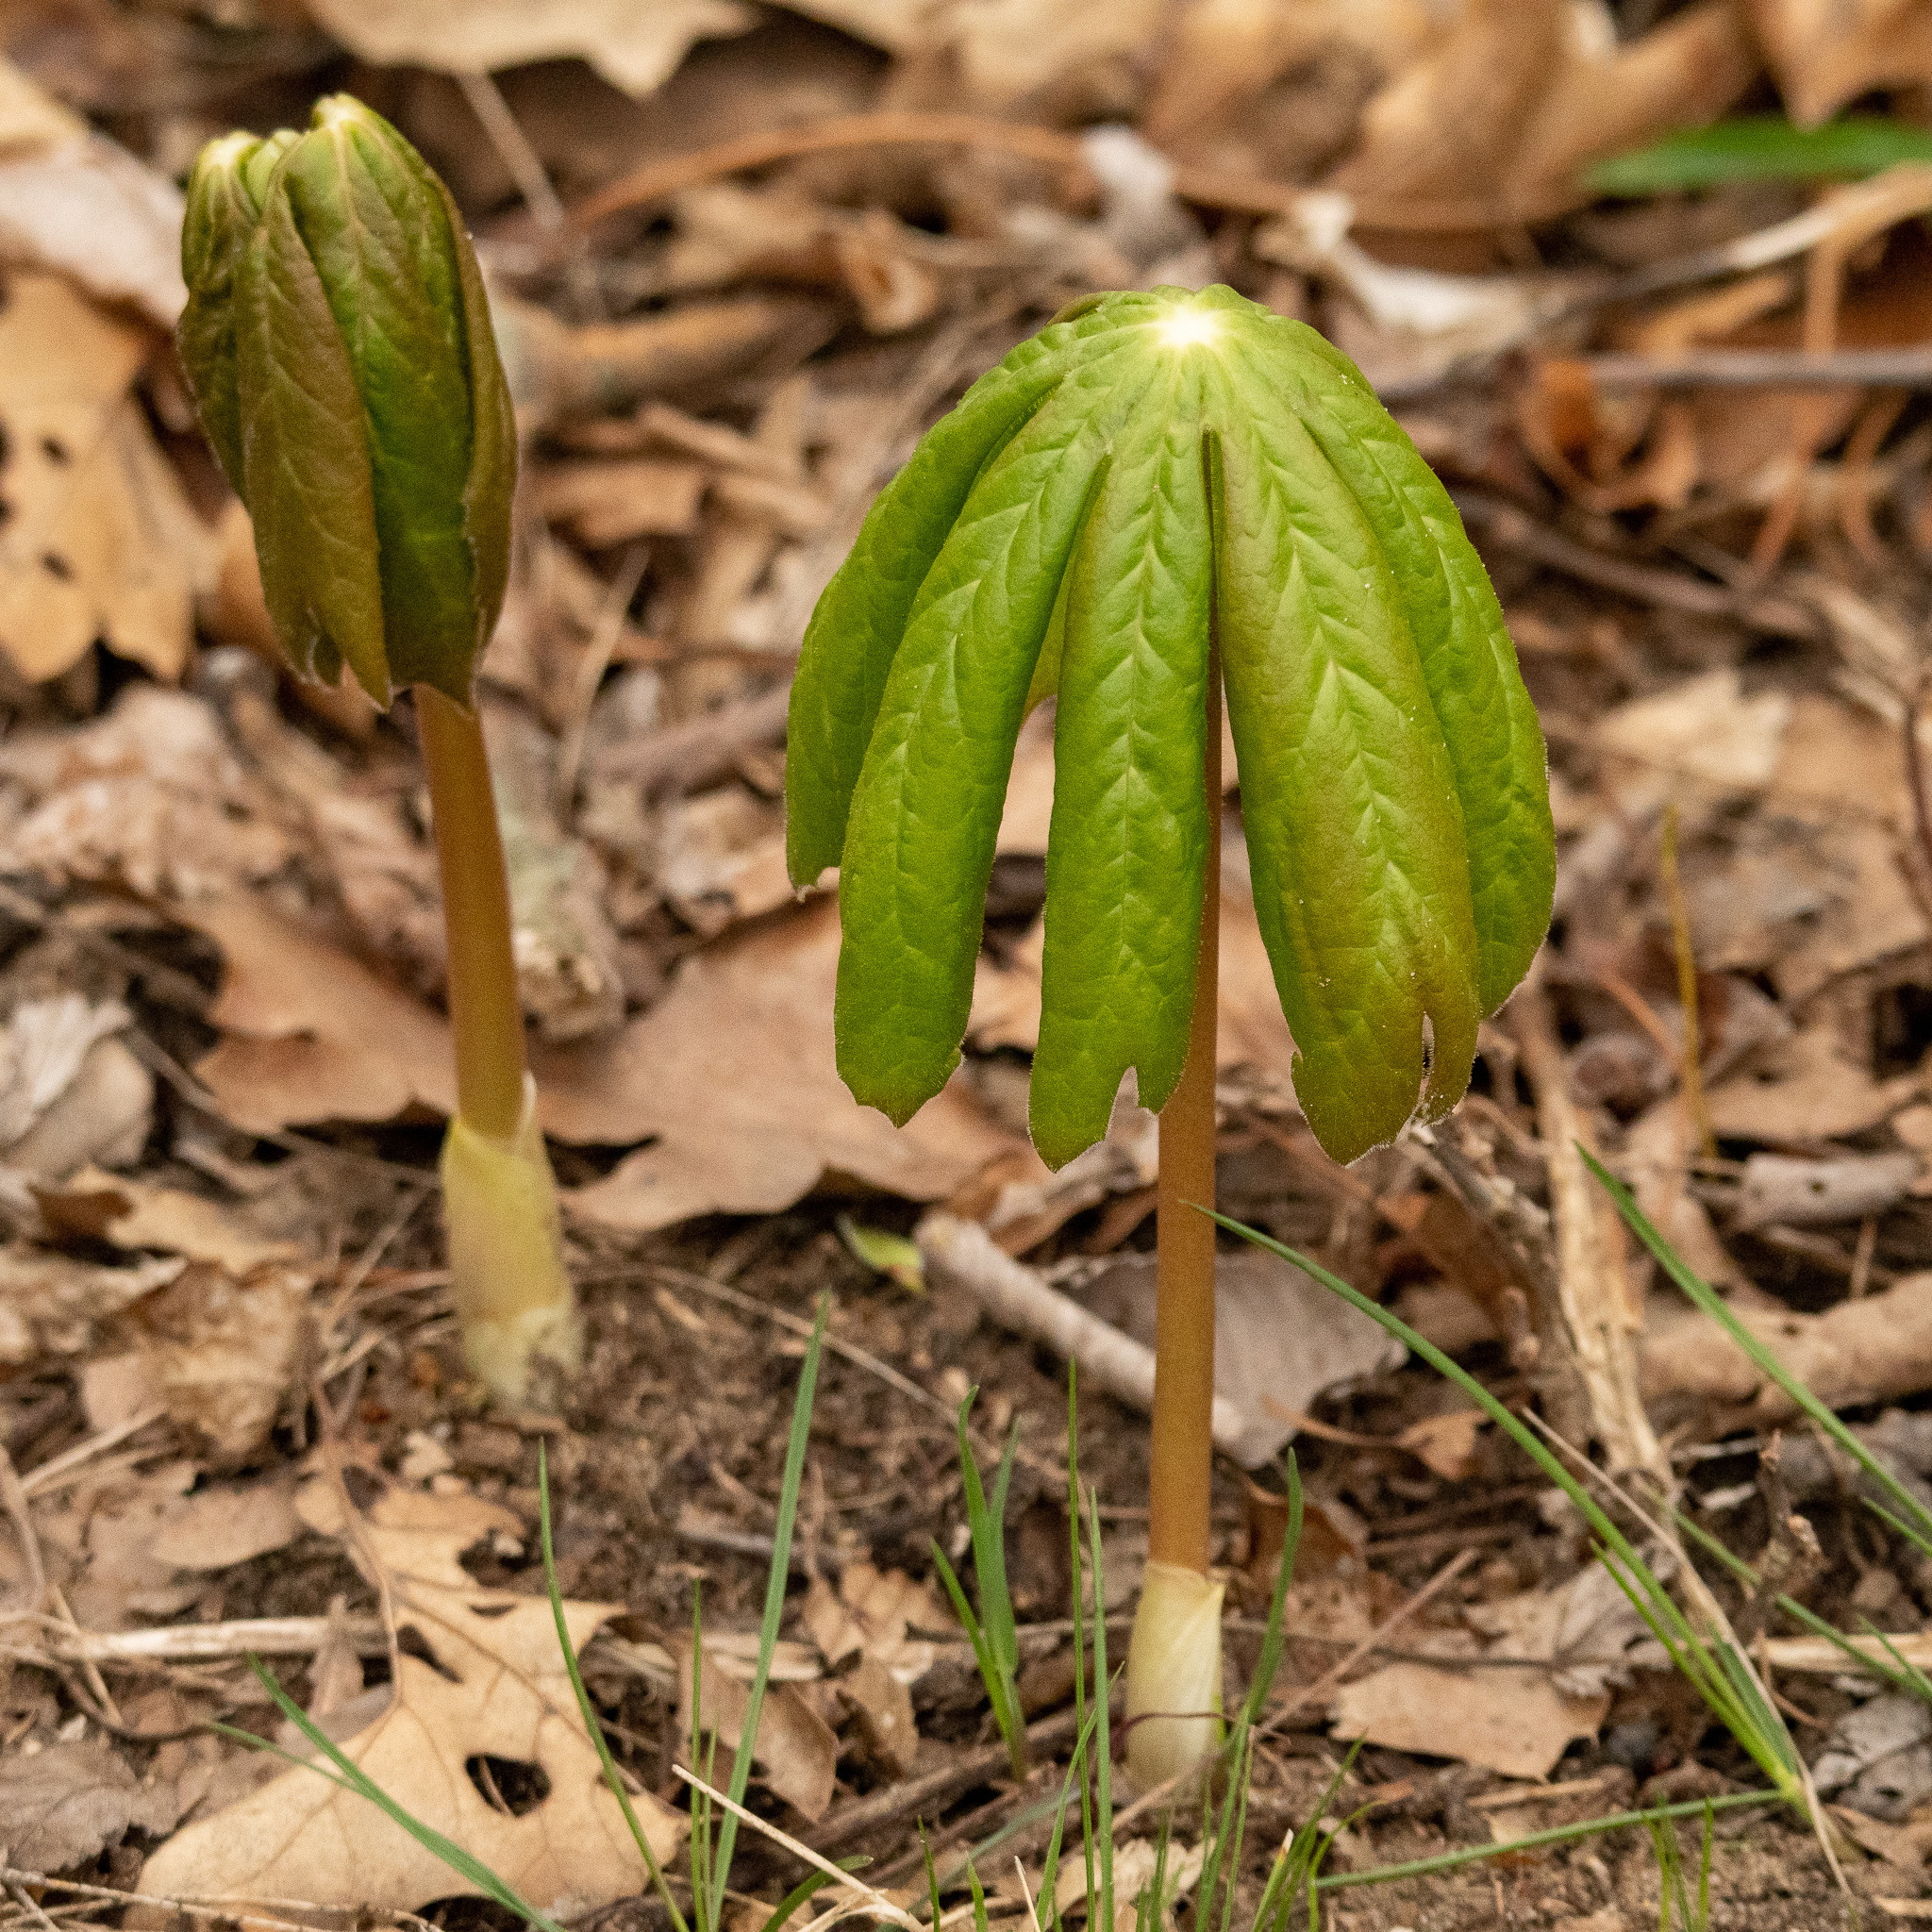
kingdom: Plantae
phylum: Tracheophyta
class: Magnoliopsida
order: Ranunculales
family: Berberidaceae
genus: Podophyllum
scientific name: Podophyllum peltatum
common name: Wild mandrake
